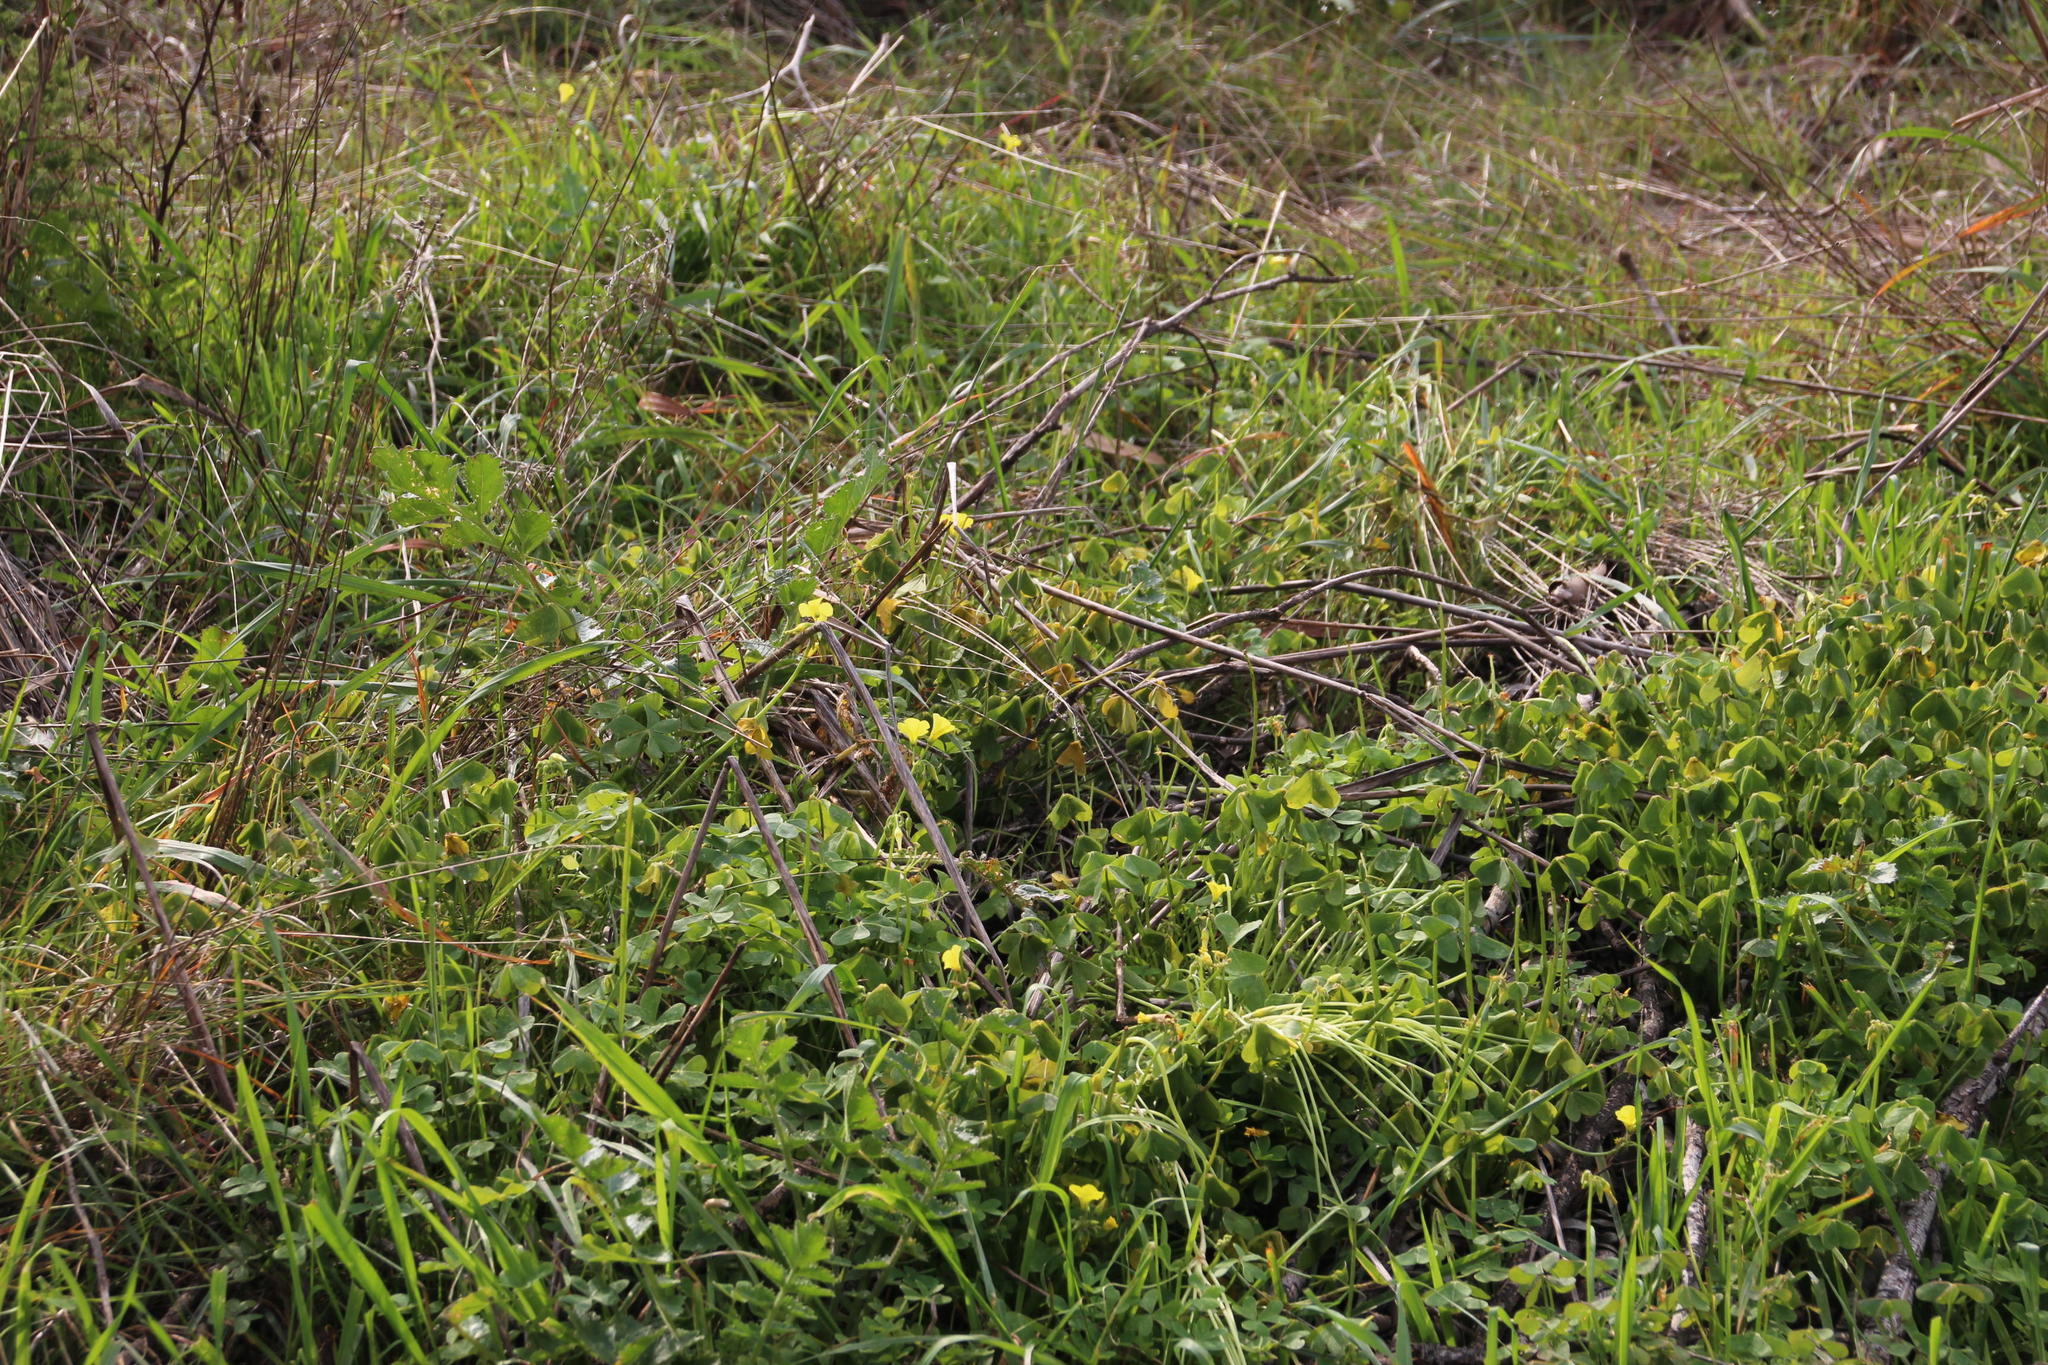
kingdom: Plantae
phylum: Tracheophyta
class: Magnoliopsida
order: Asterales
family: Asteraceae
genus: Cotula
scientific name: Cotula turbinata
